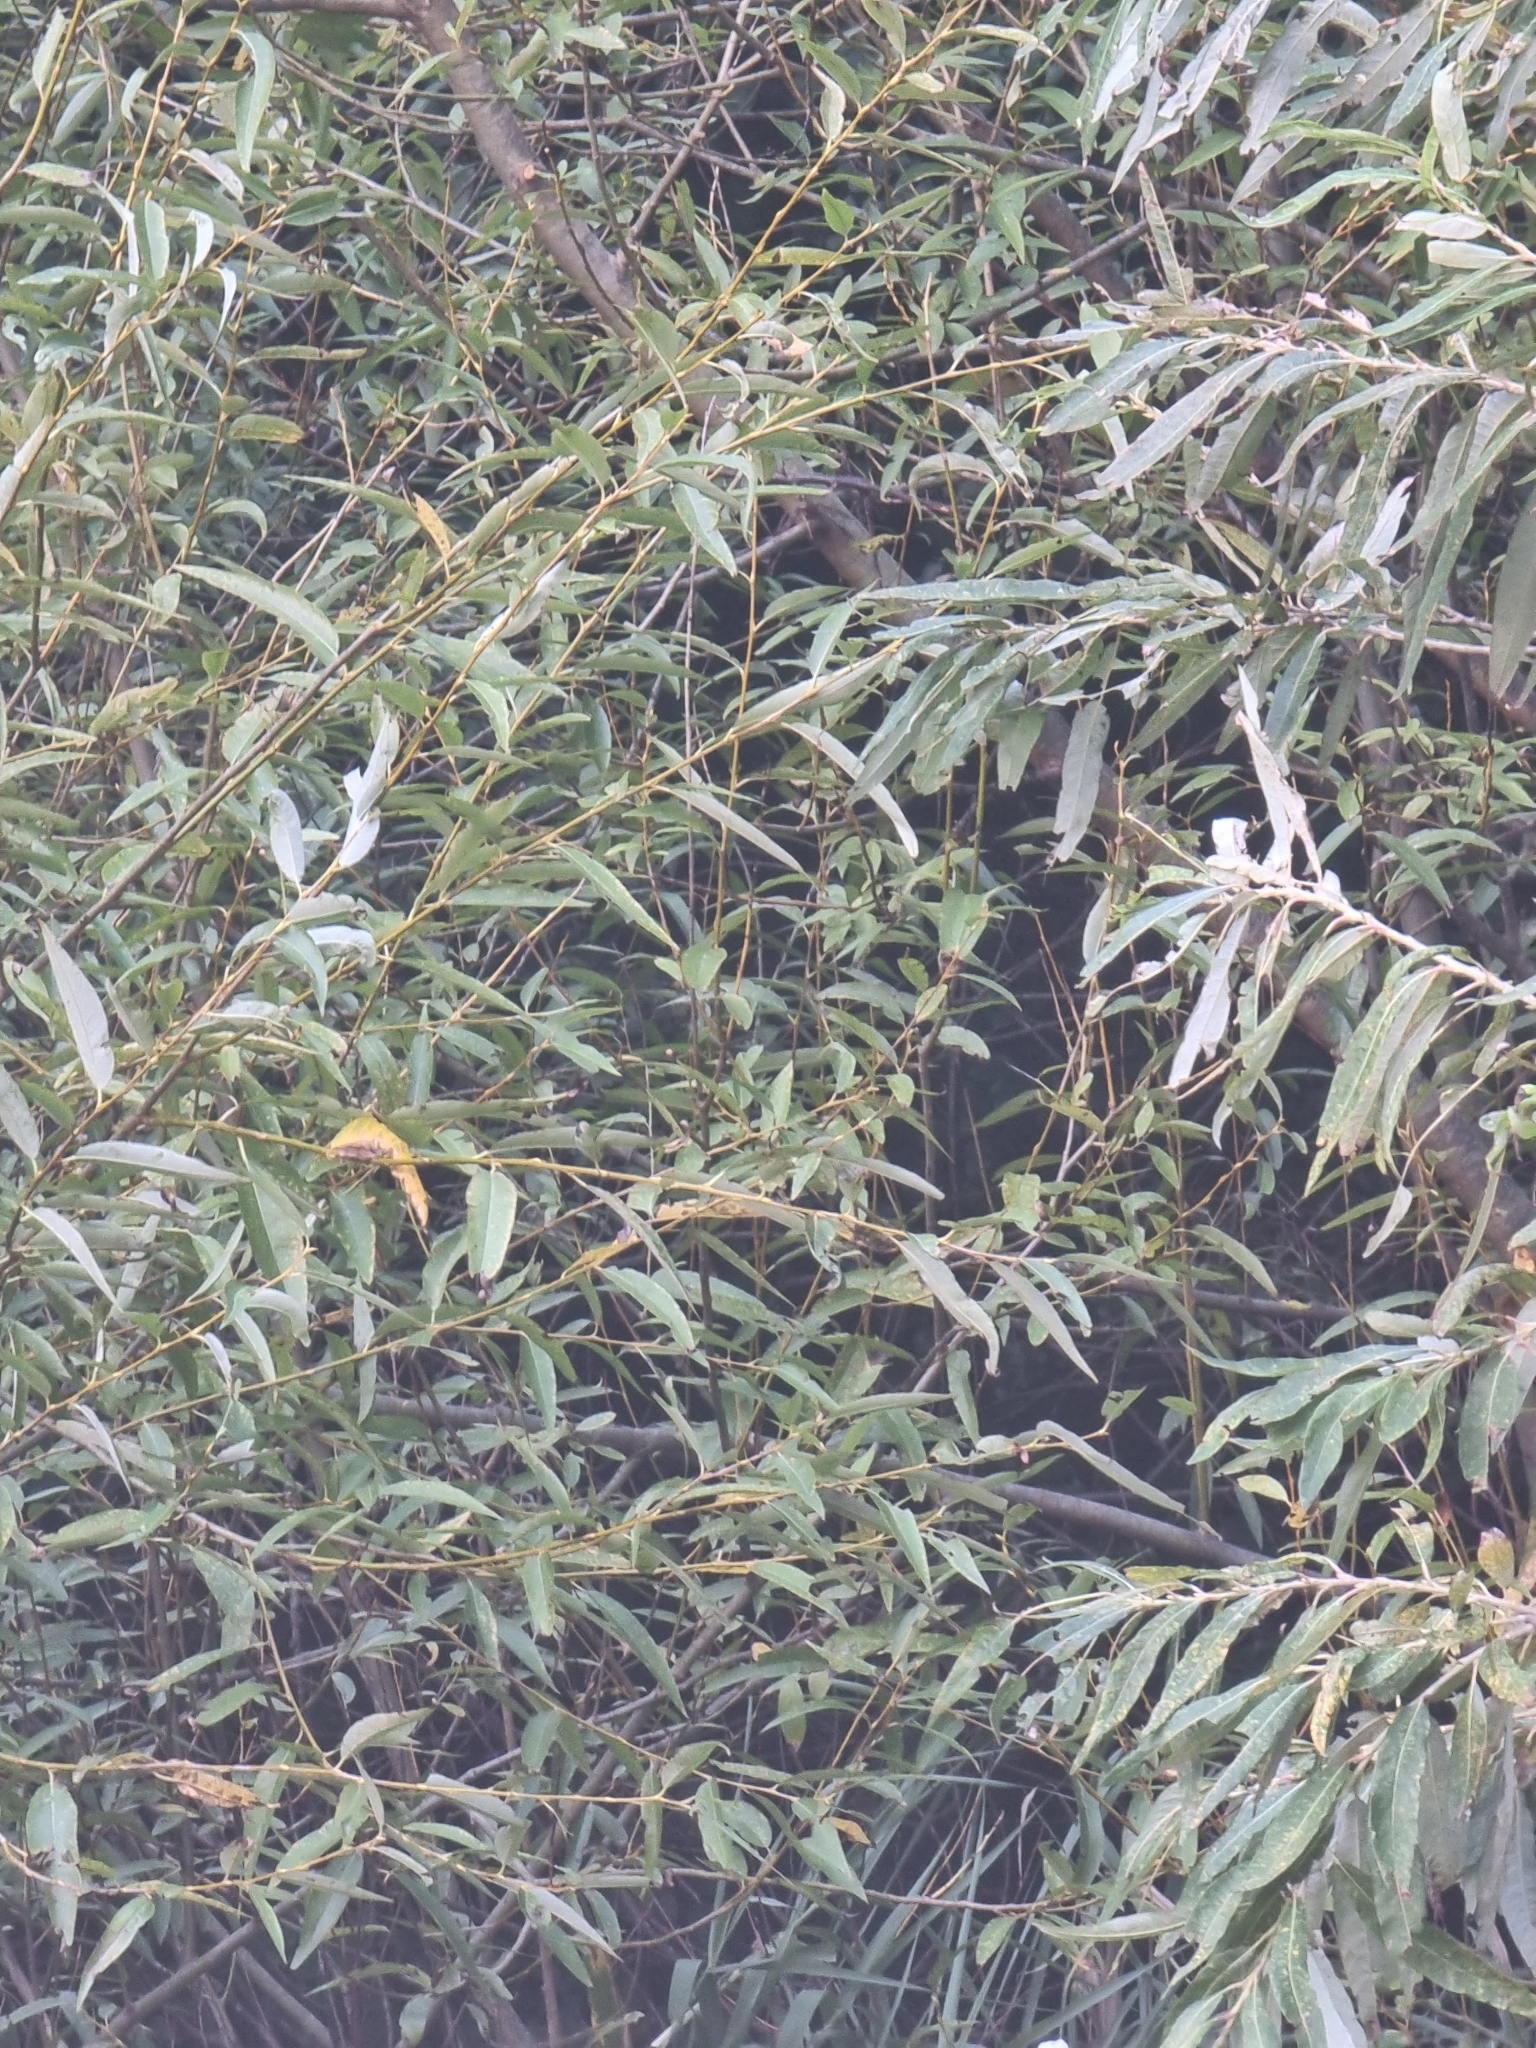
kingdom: Plantae
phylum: Tracheophyta
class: Magnoliopsida
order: Malpighiales
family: Salicaceae
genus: Salix
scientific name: Salix canariensis
